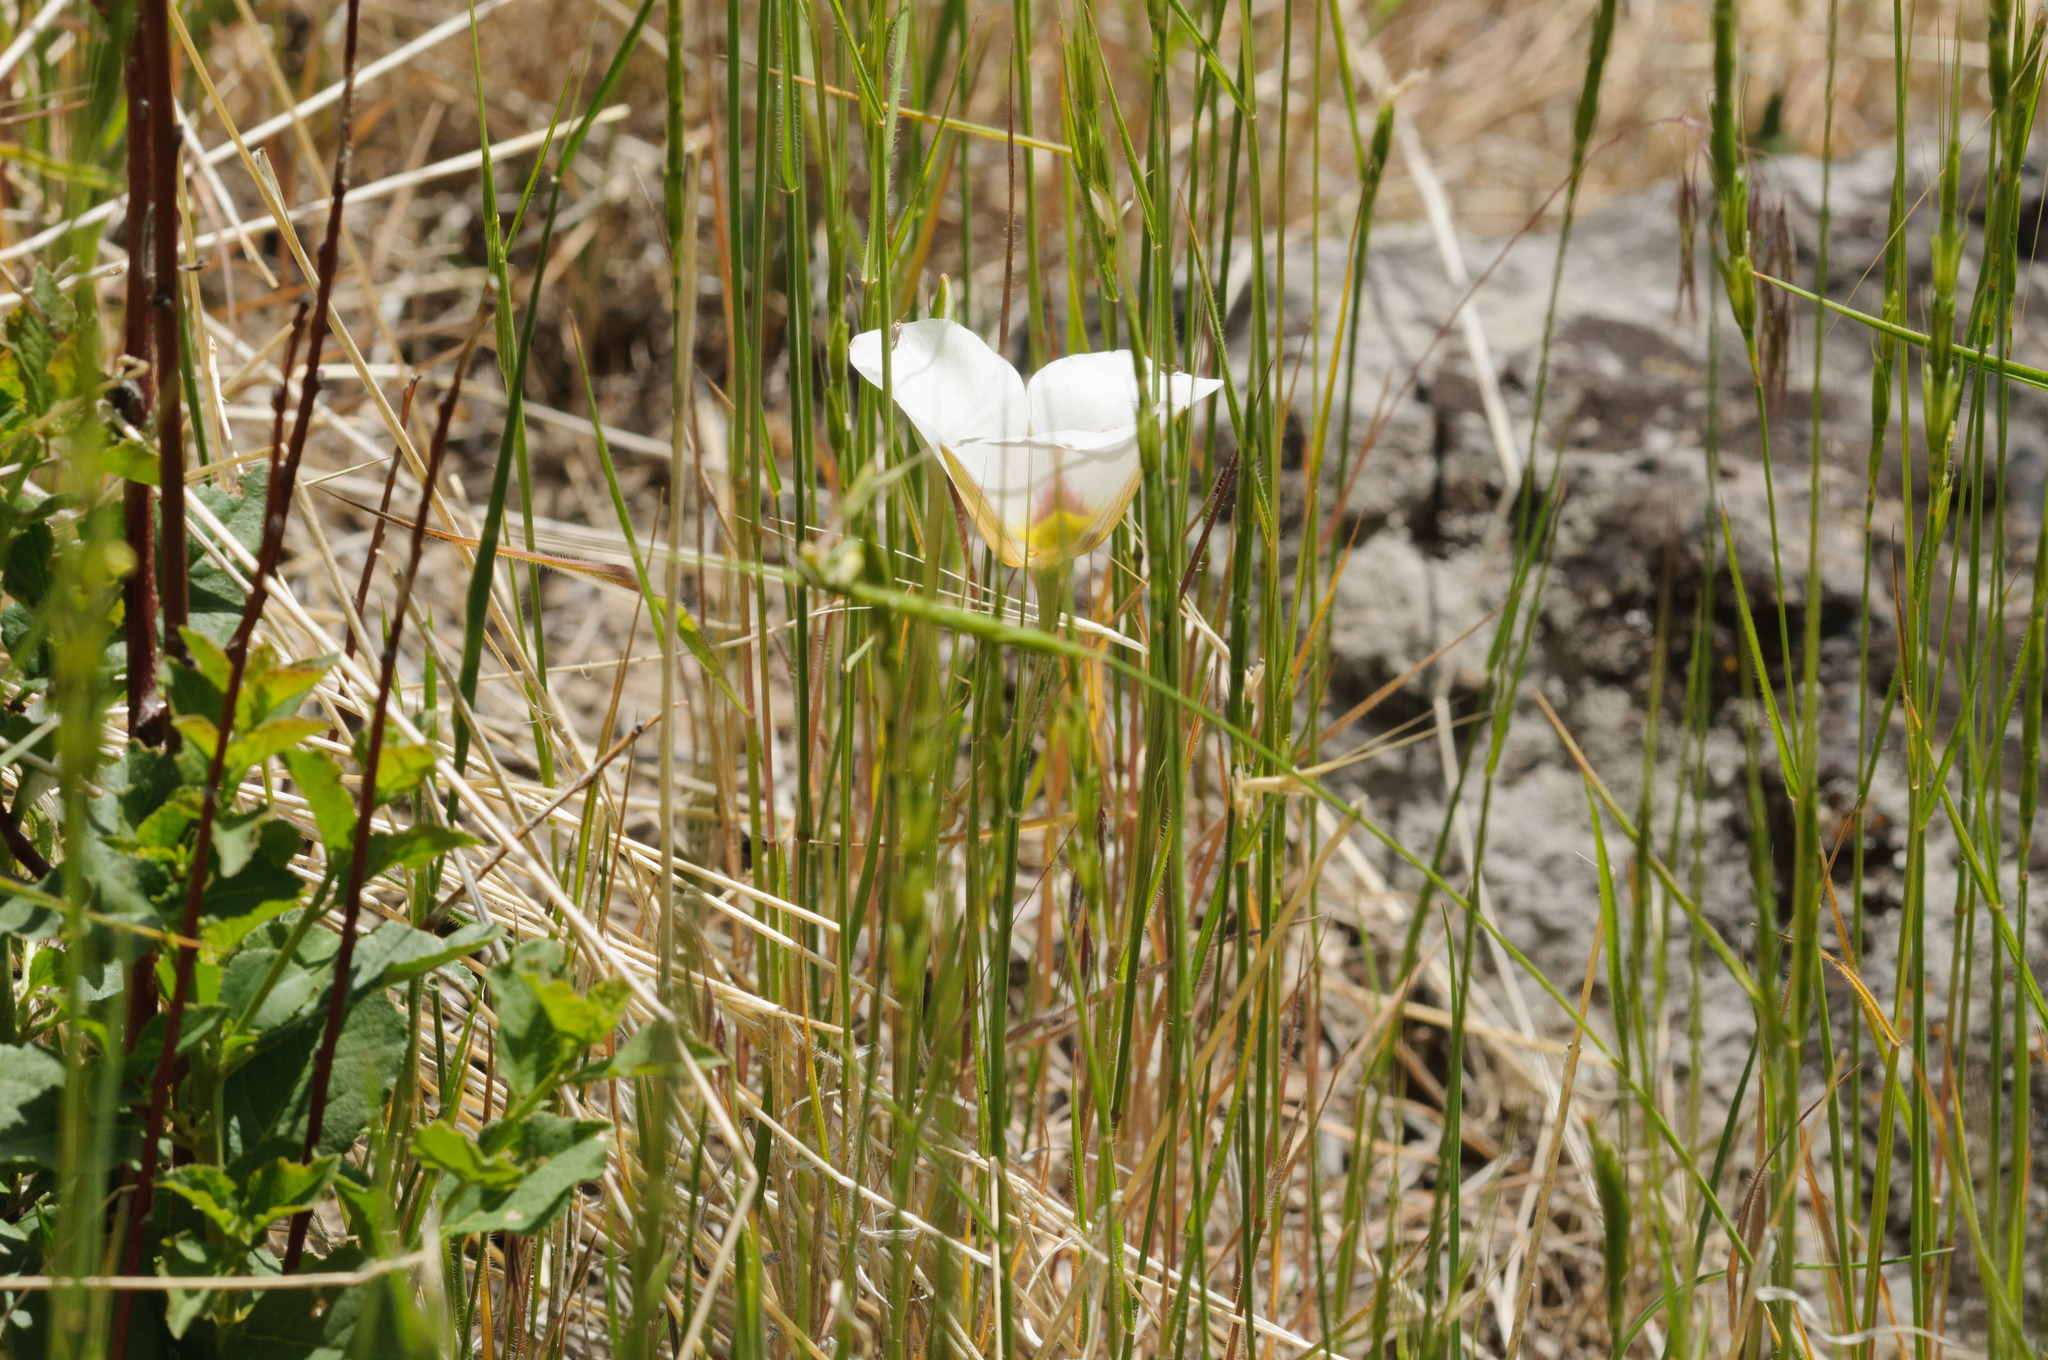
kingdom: Plantae
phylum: Tracheophyta
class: Liliopsida
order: Liliales
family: Liliaceae
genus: Calochortus
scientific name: Calochortus nuttallii
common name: Sego-lily
